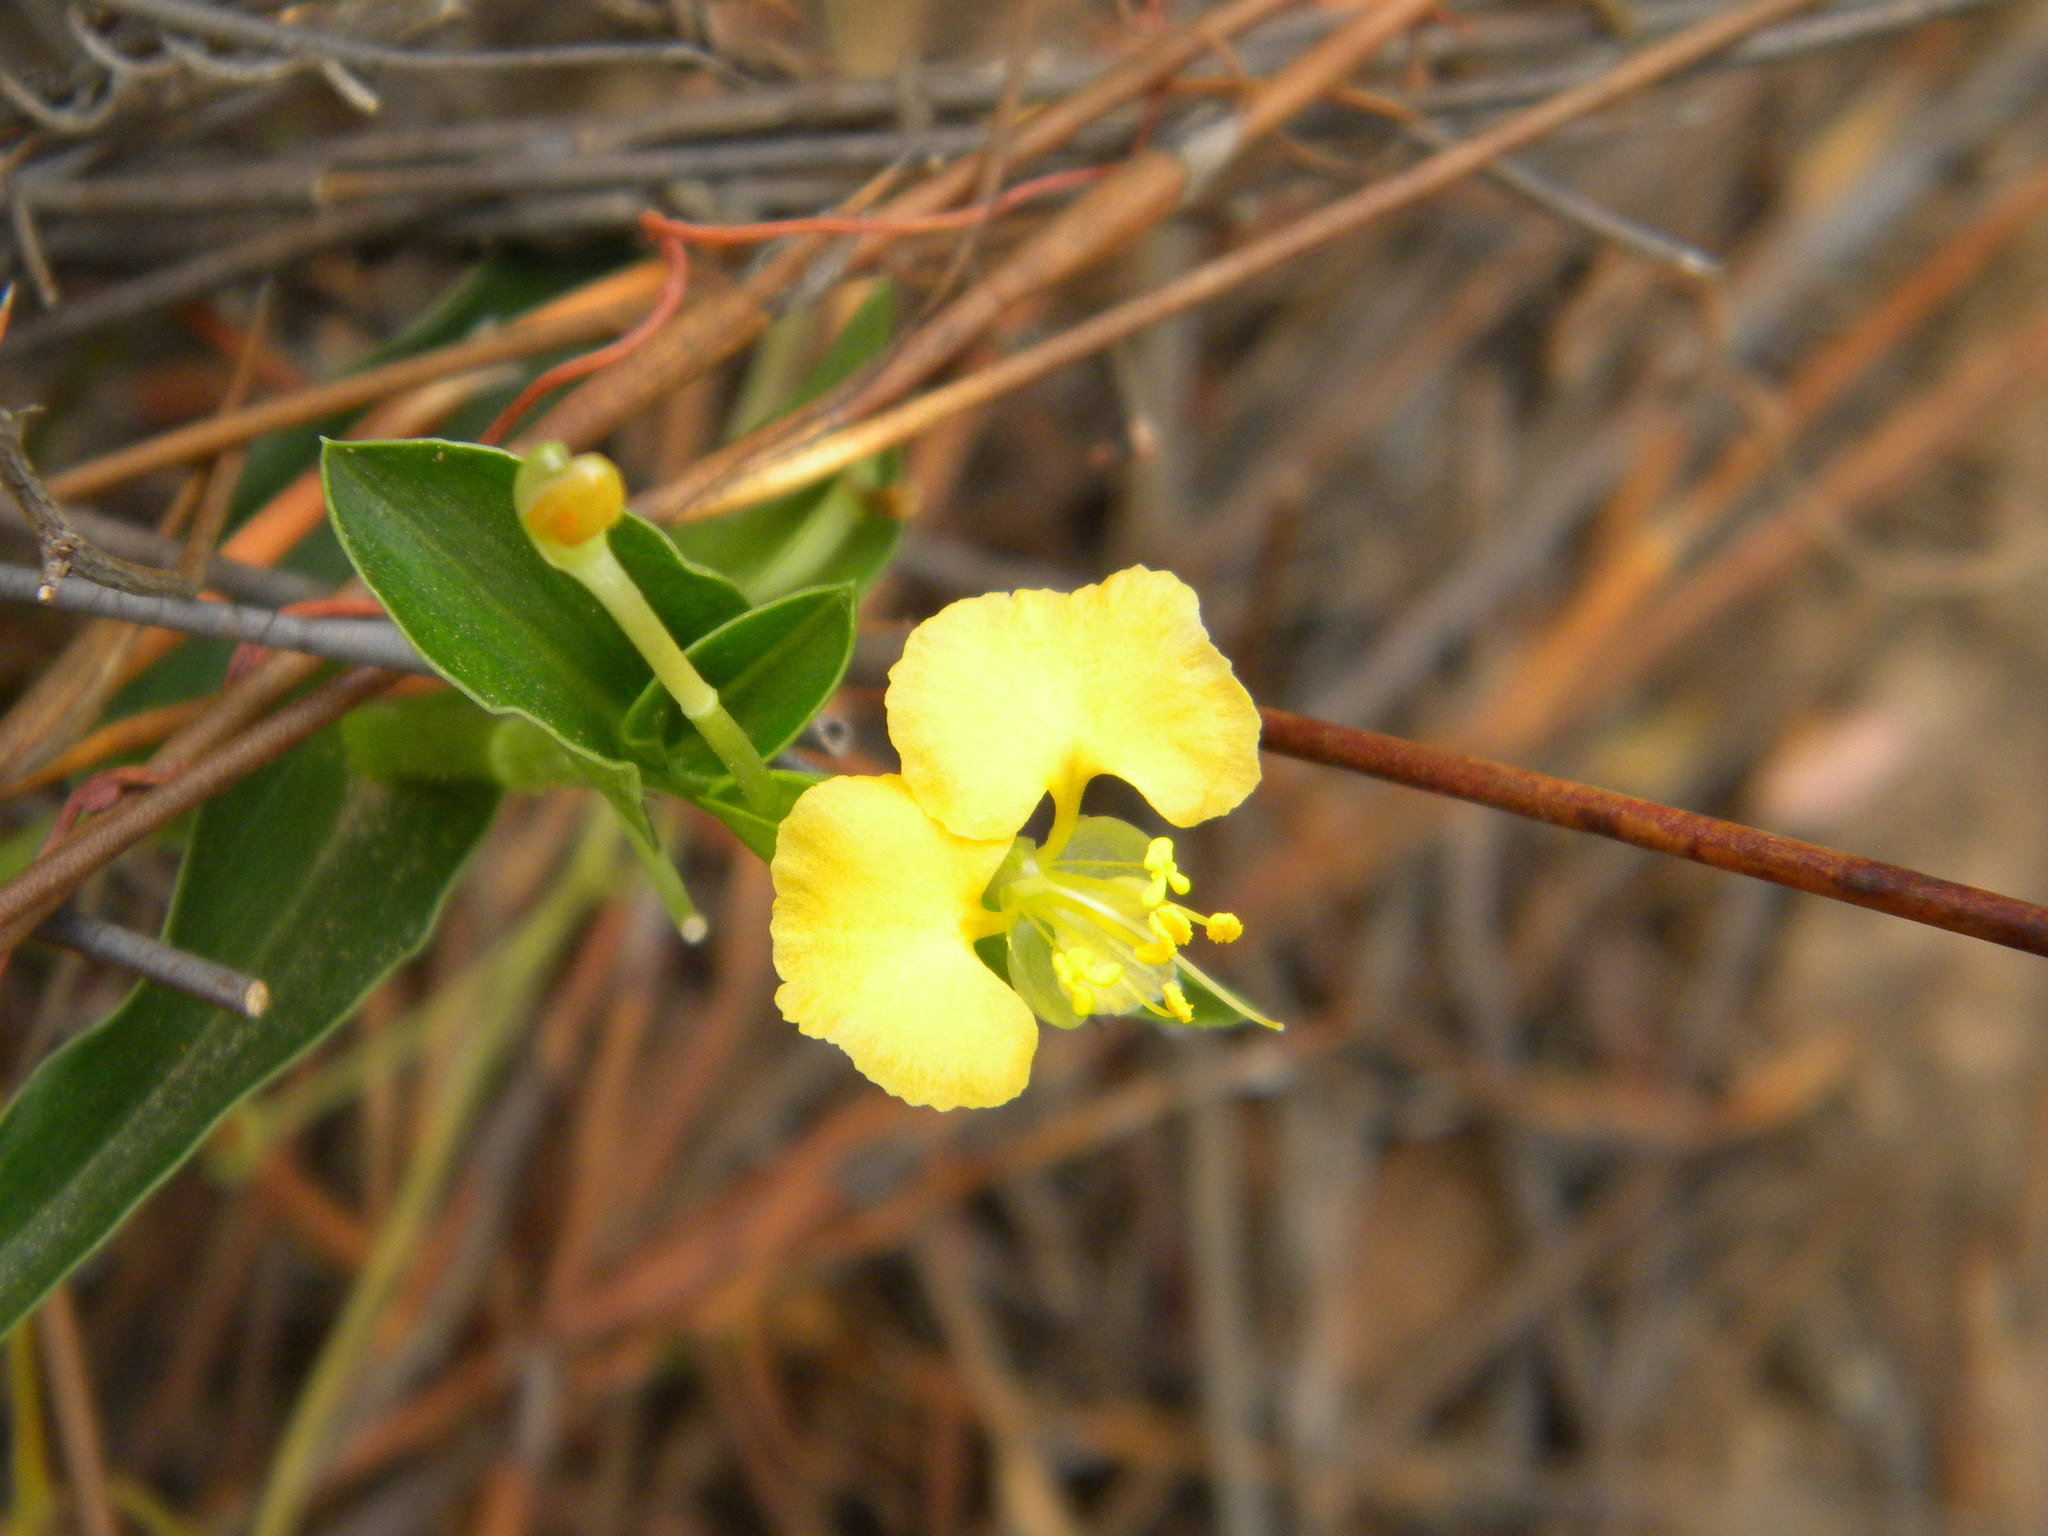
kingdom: Plantae
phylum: Tracheophyta
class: Liliopsida
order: Commelinales
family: Commelinaceae
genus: Commelina
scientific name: Commelina africana
